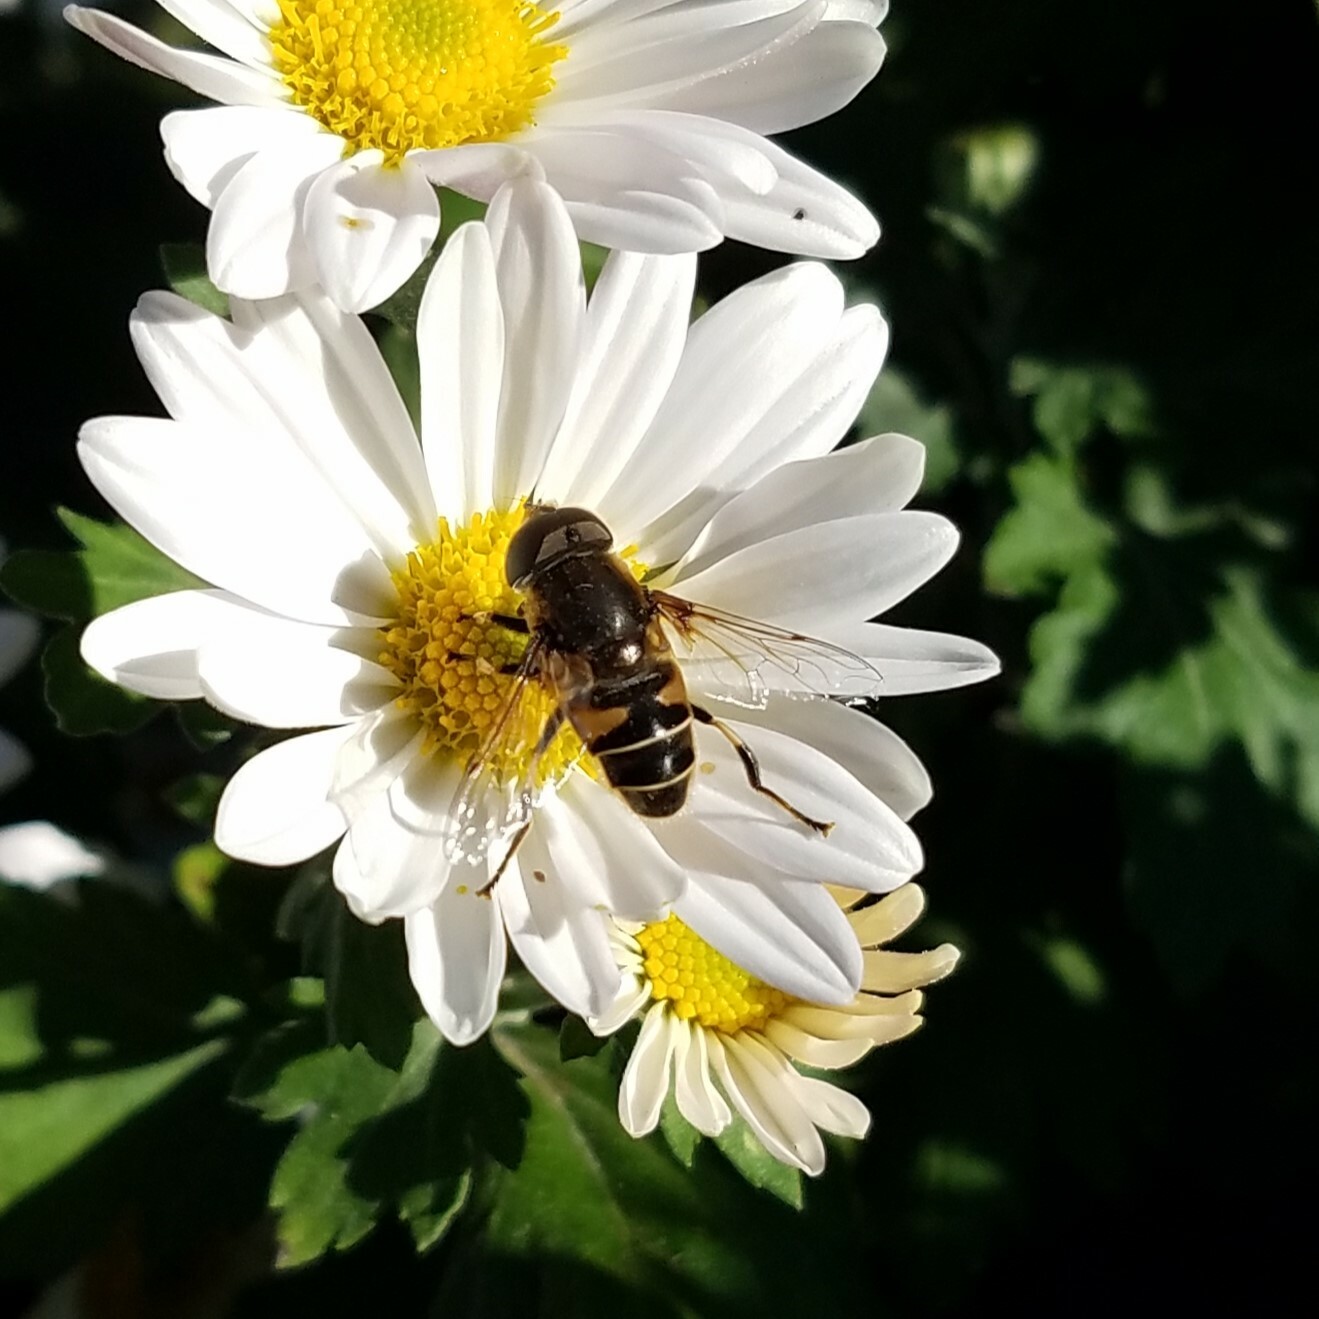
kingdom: Animalia
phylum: Arthropoda
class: Insecta
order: Diptera
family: Syrphidae
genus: Eristalis
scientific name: Eristalis dimidiata
